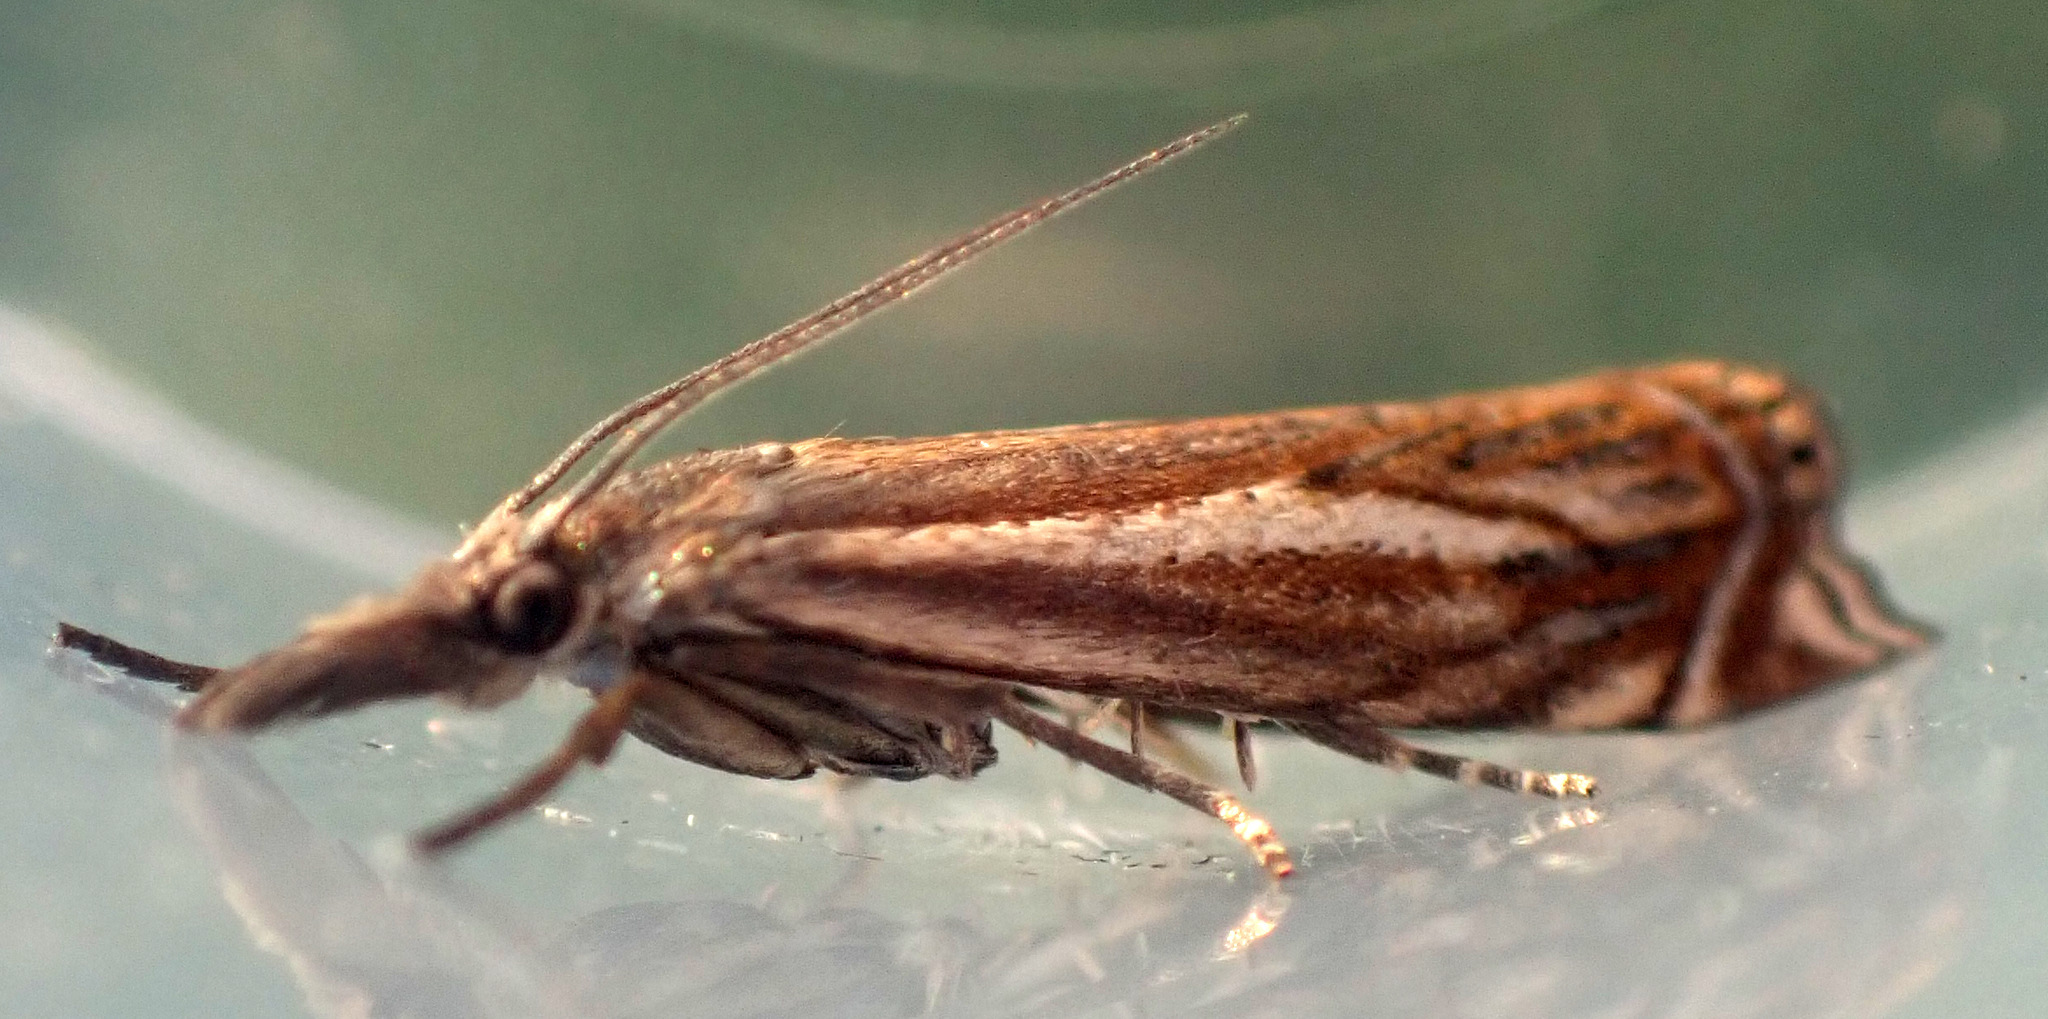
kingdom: Animalia
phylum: Arthropoda
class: Insecta
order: Lepidoptera
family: Crambidae
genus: Crambus
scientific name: Crambus nemorella
